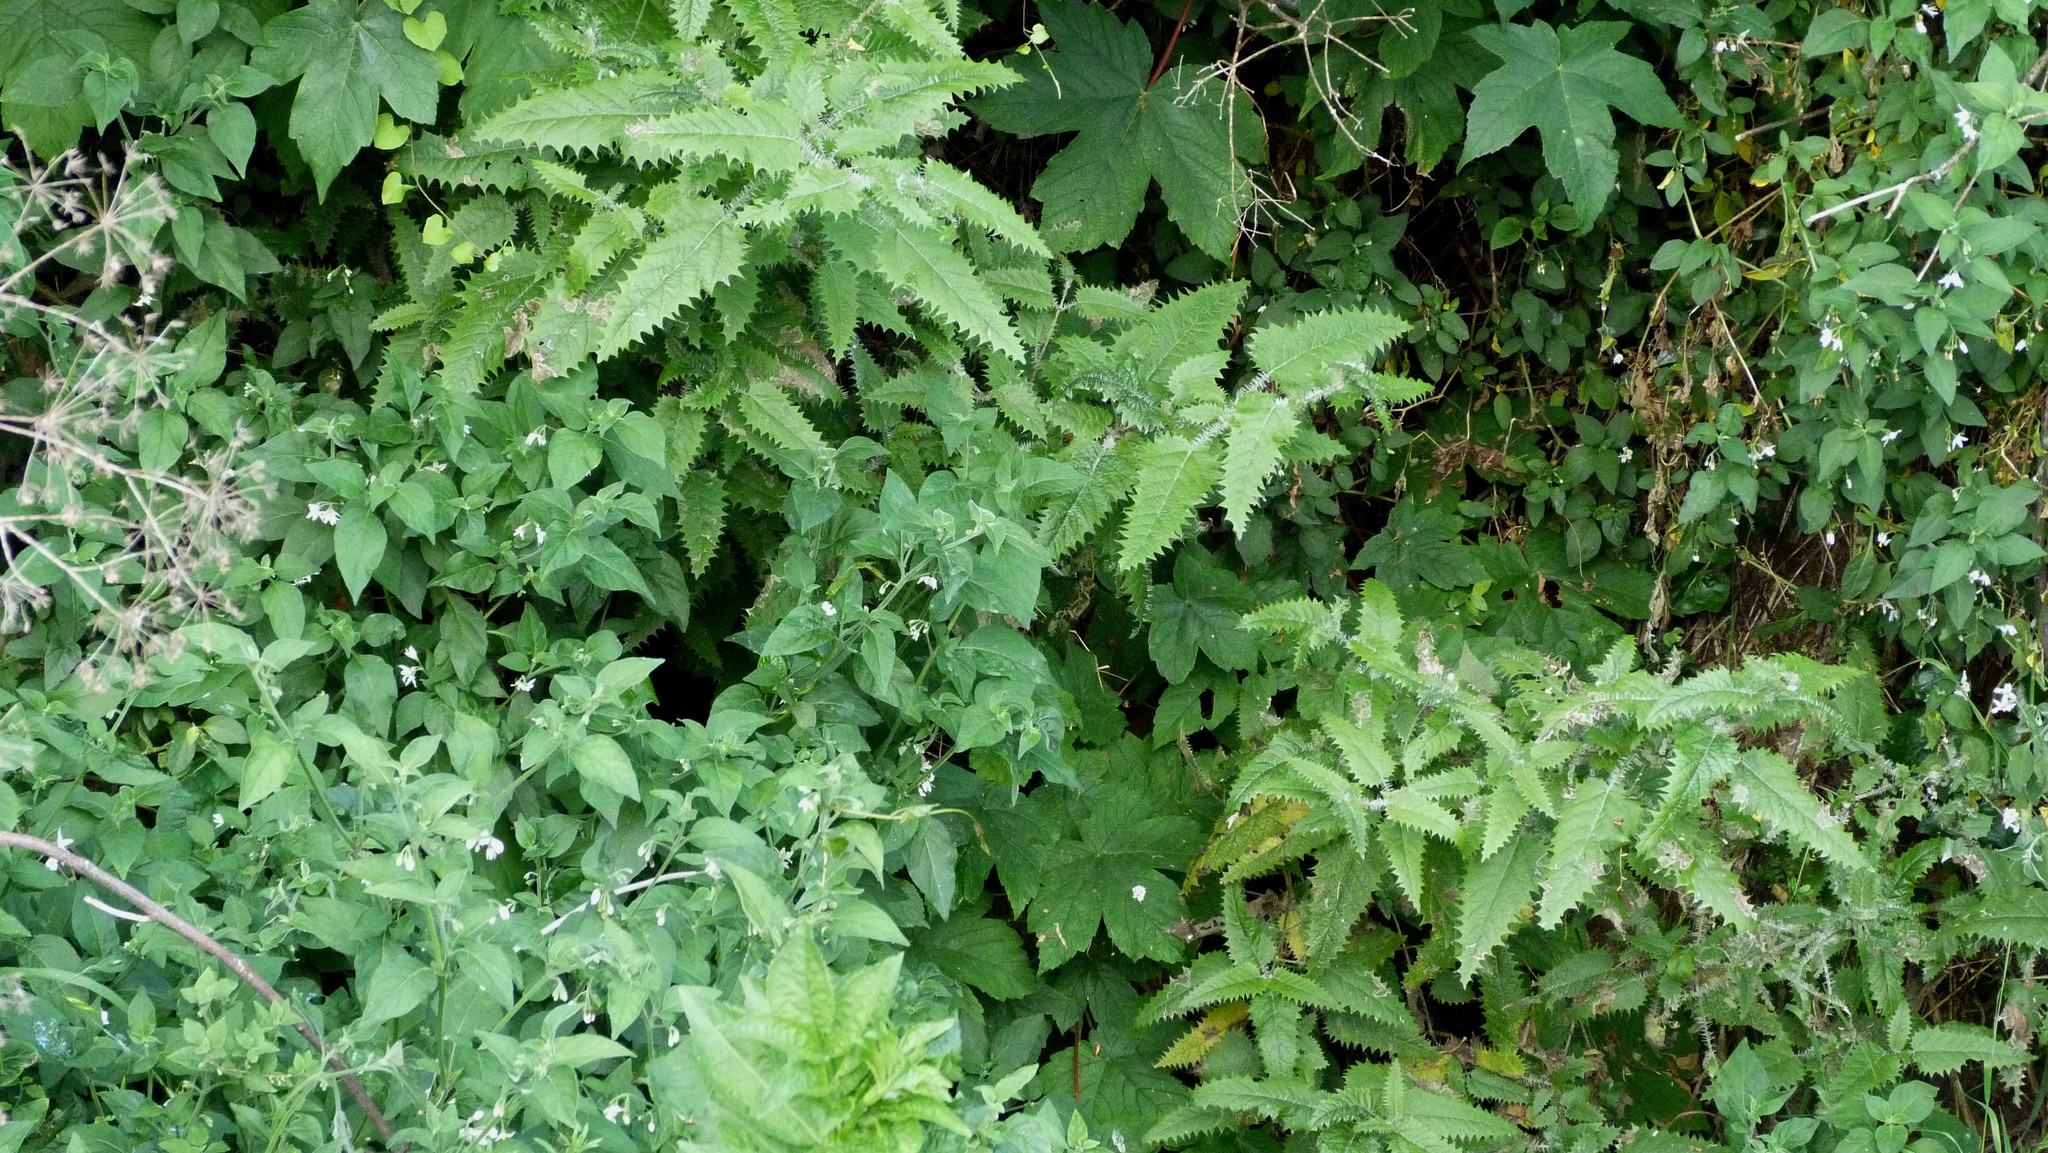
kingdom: Plantae
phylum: Tracheophyta
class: Magnoliopsida
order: Rosales
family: Urticaceae
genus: Urtica
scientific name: Urtica ferox
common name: Tree nettle
